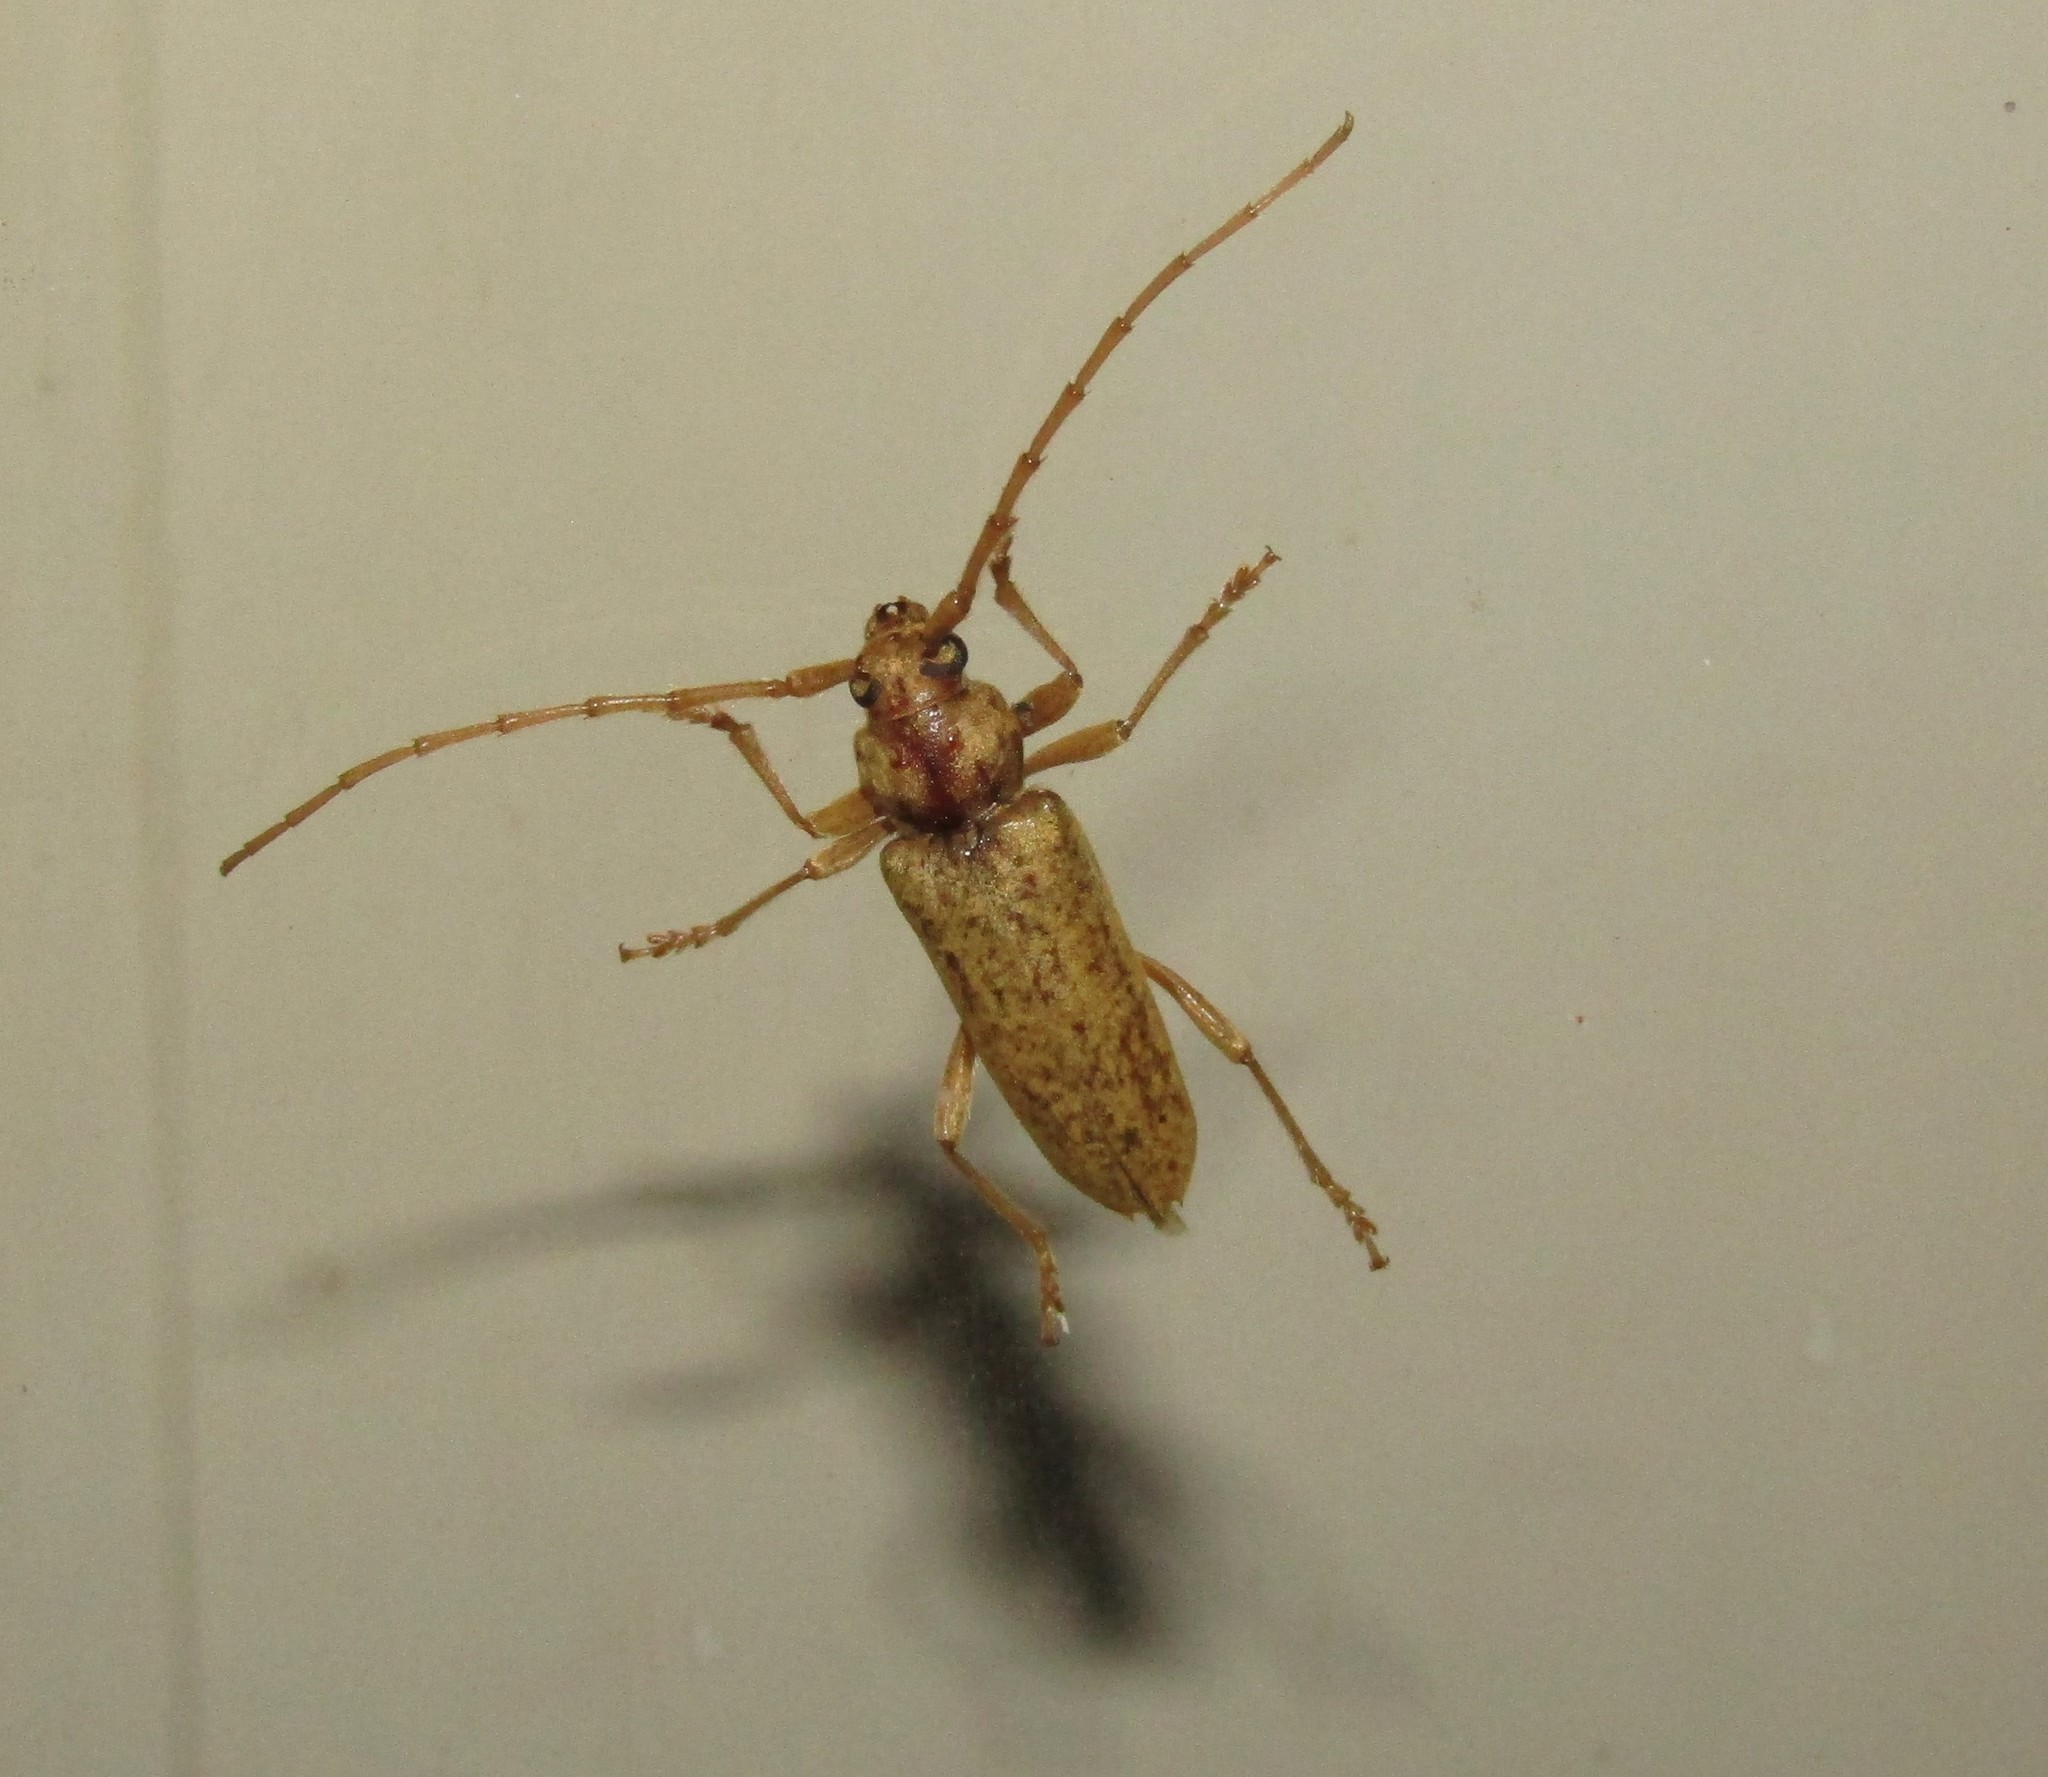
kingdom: Animalia
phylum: Arthropoda
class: Insecta
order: Coleoptera
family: Cerambycidae
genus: Enaphalodes
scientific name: Enaphalodes rufulus
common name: Red oak borer
